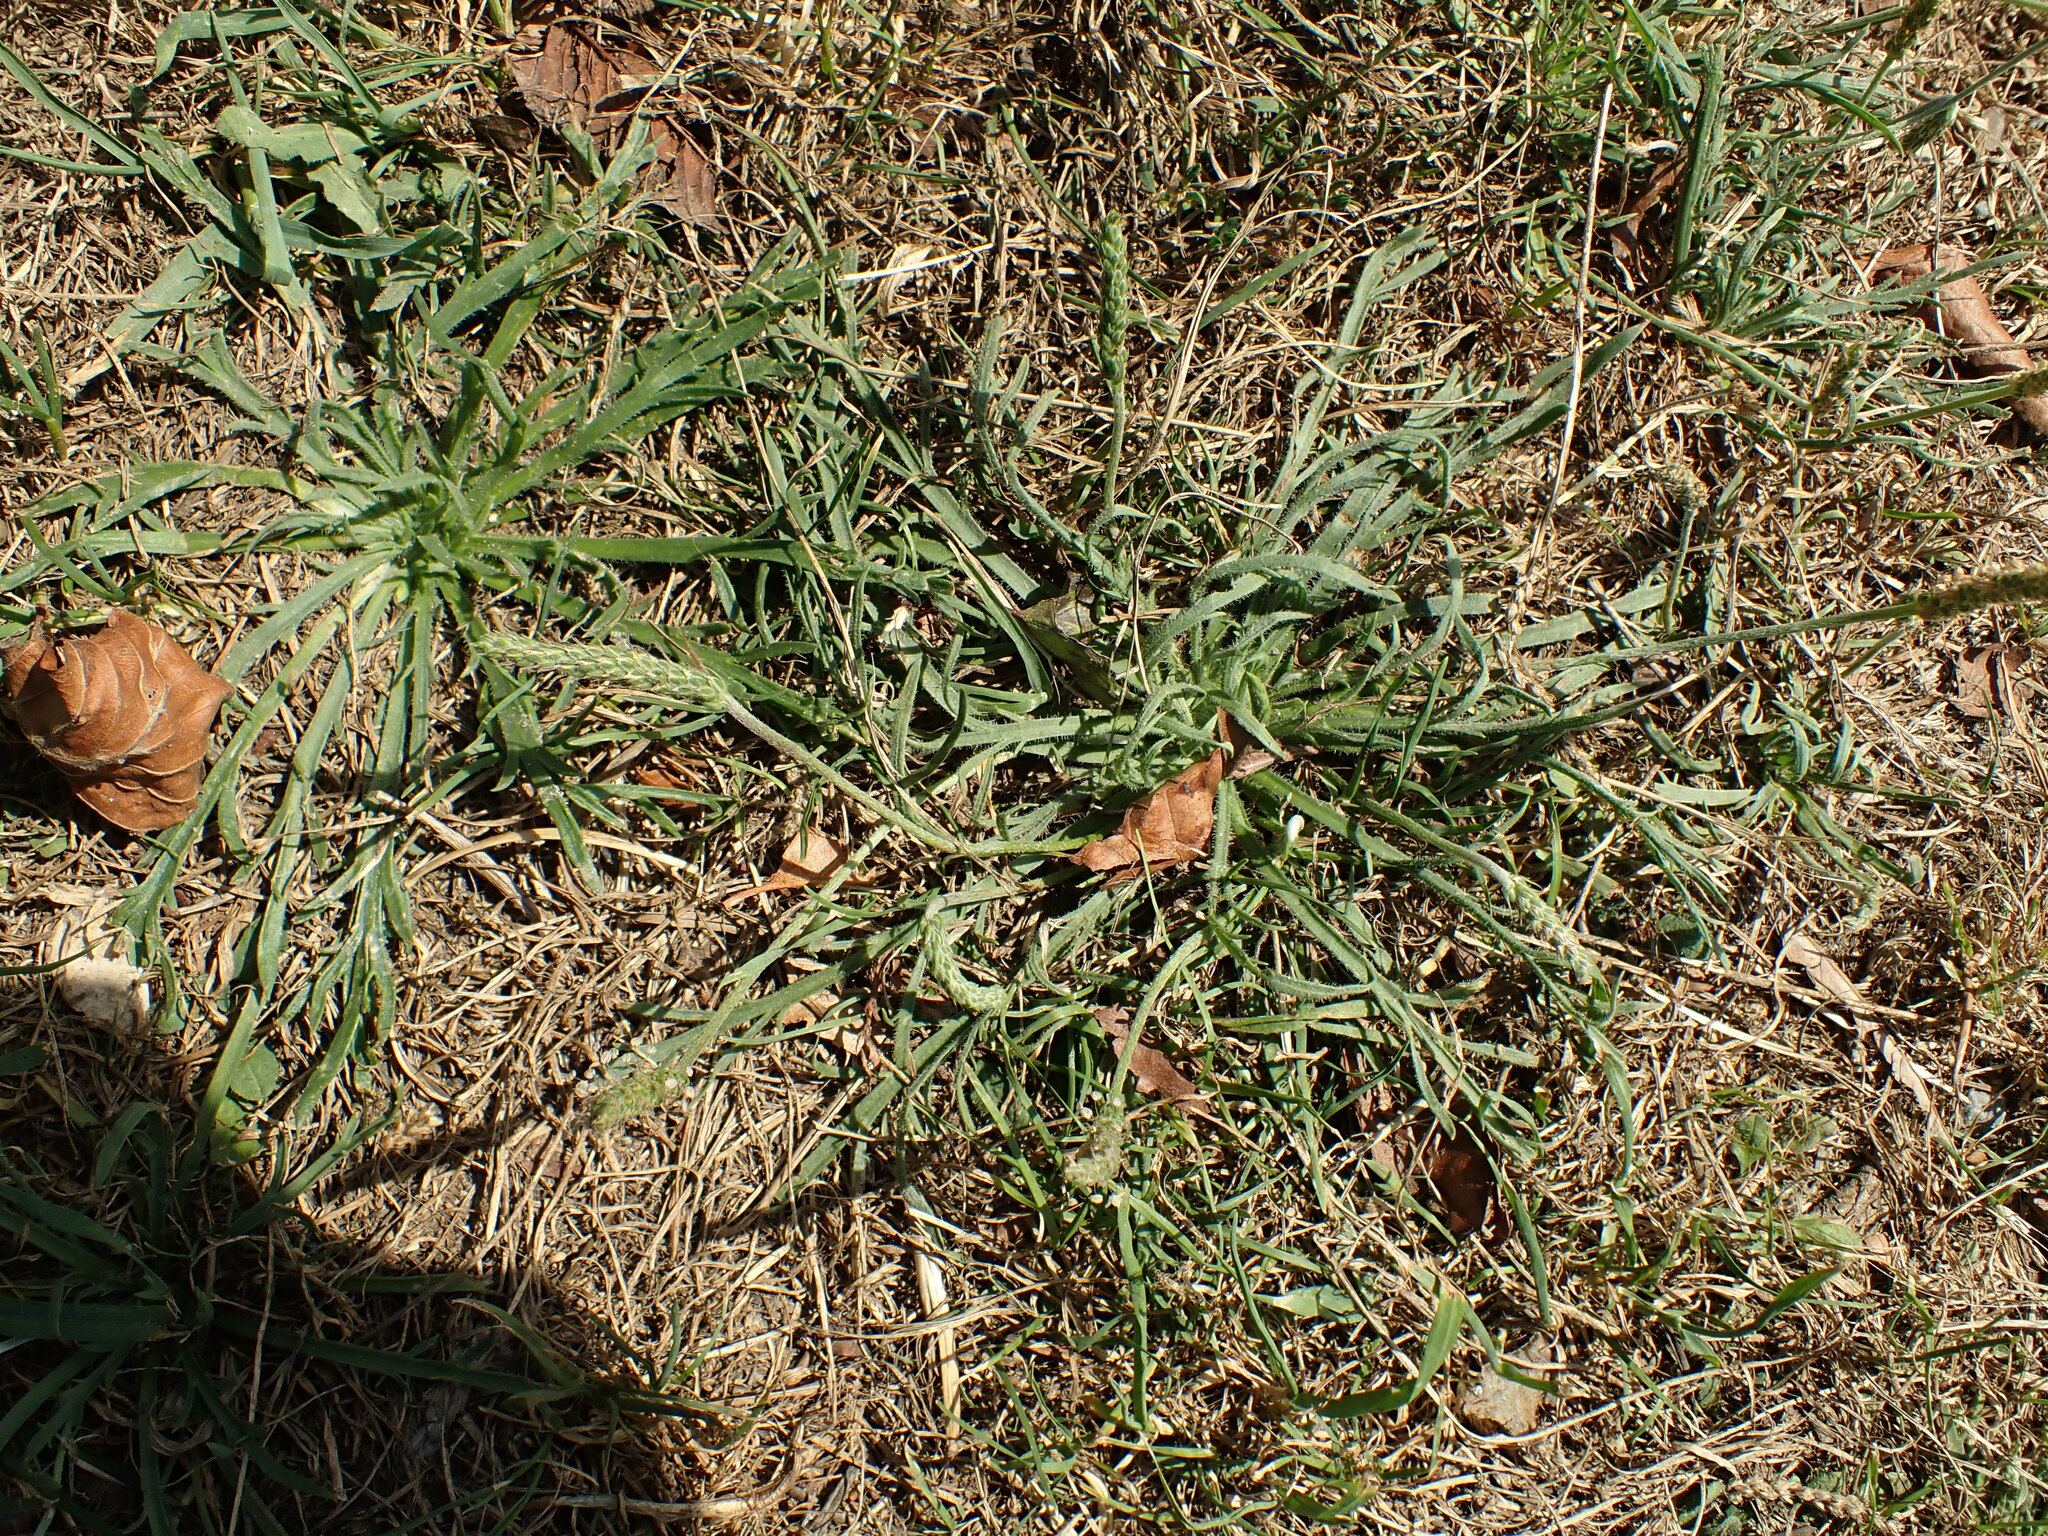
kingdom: Plantae
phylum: Tracheophyta
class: Magnoliopsida
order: Lamiales
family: Plantaginaceae
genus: Plantago
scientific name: Plantago coronopus
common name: Buck's-horn plantain
